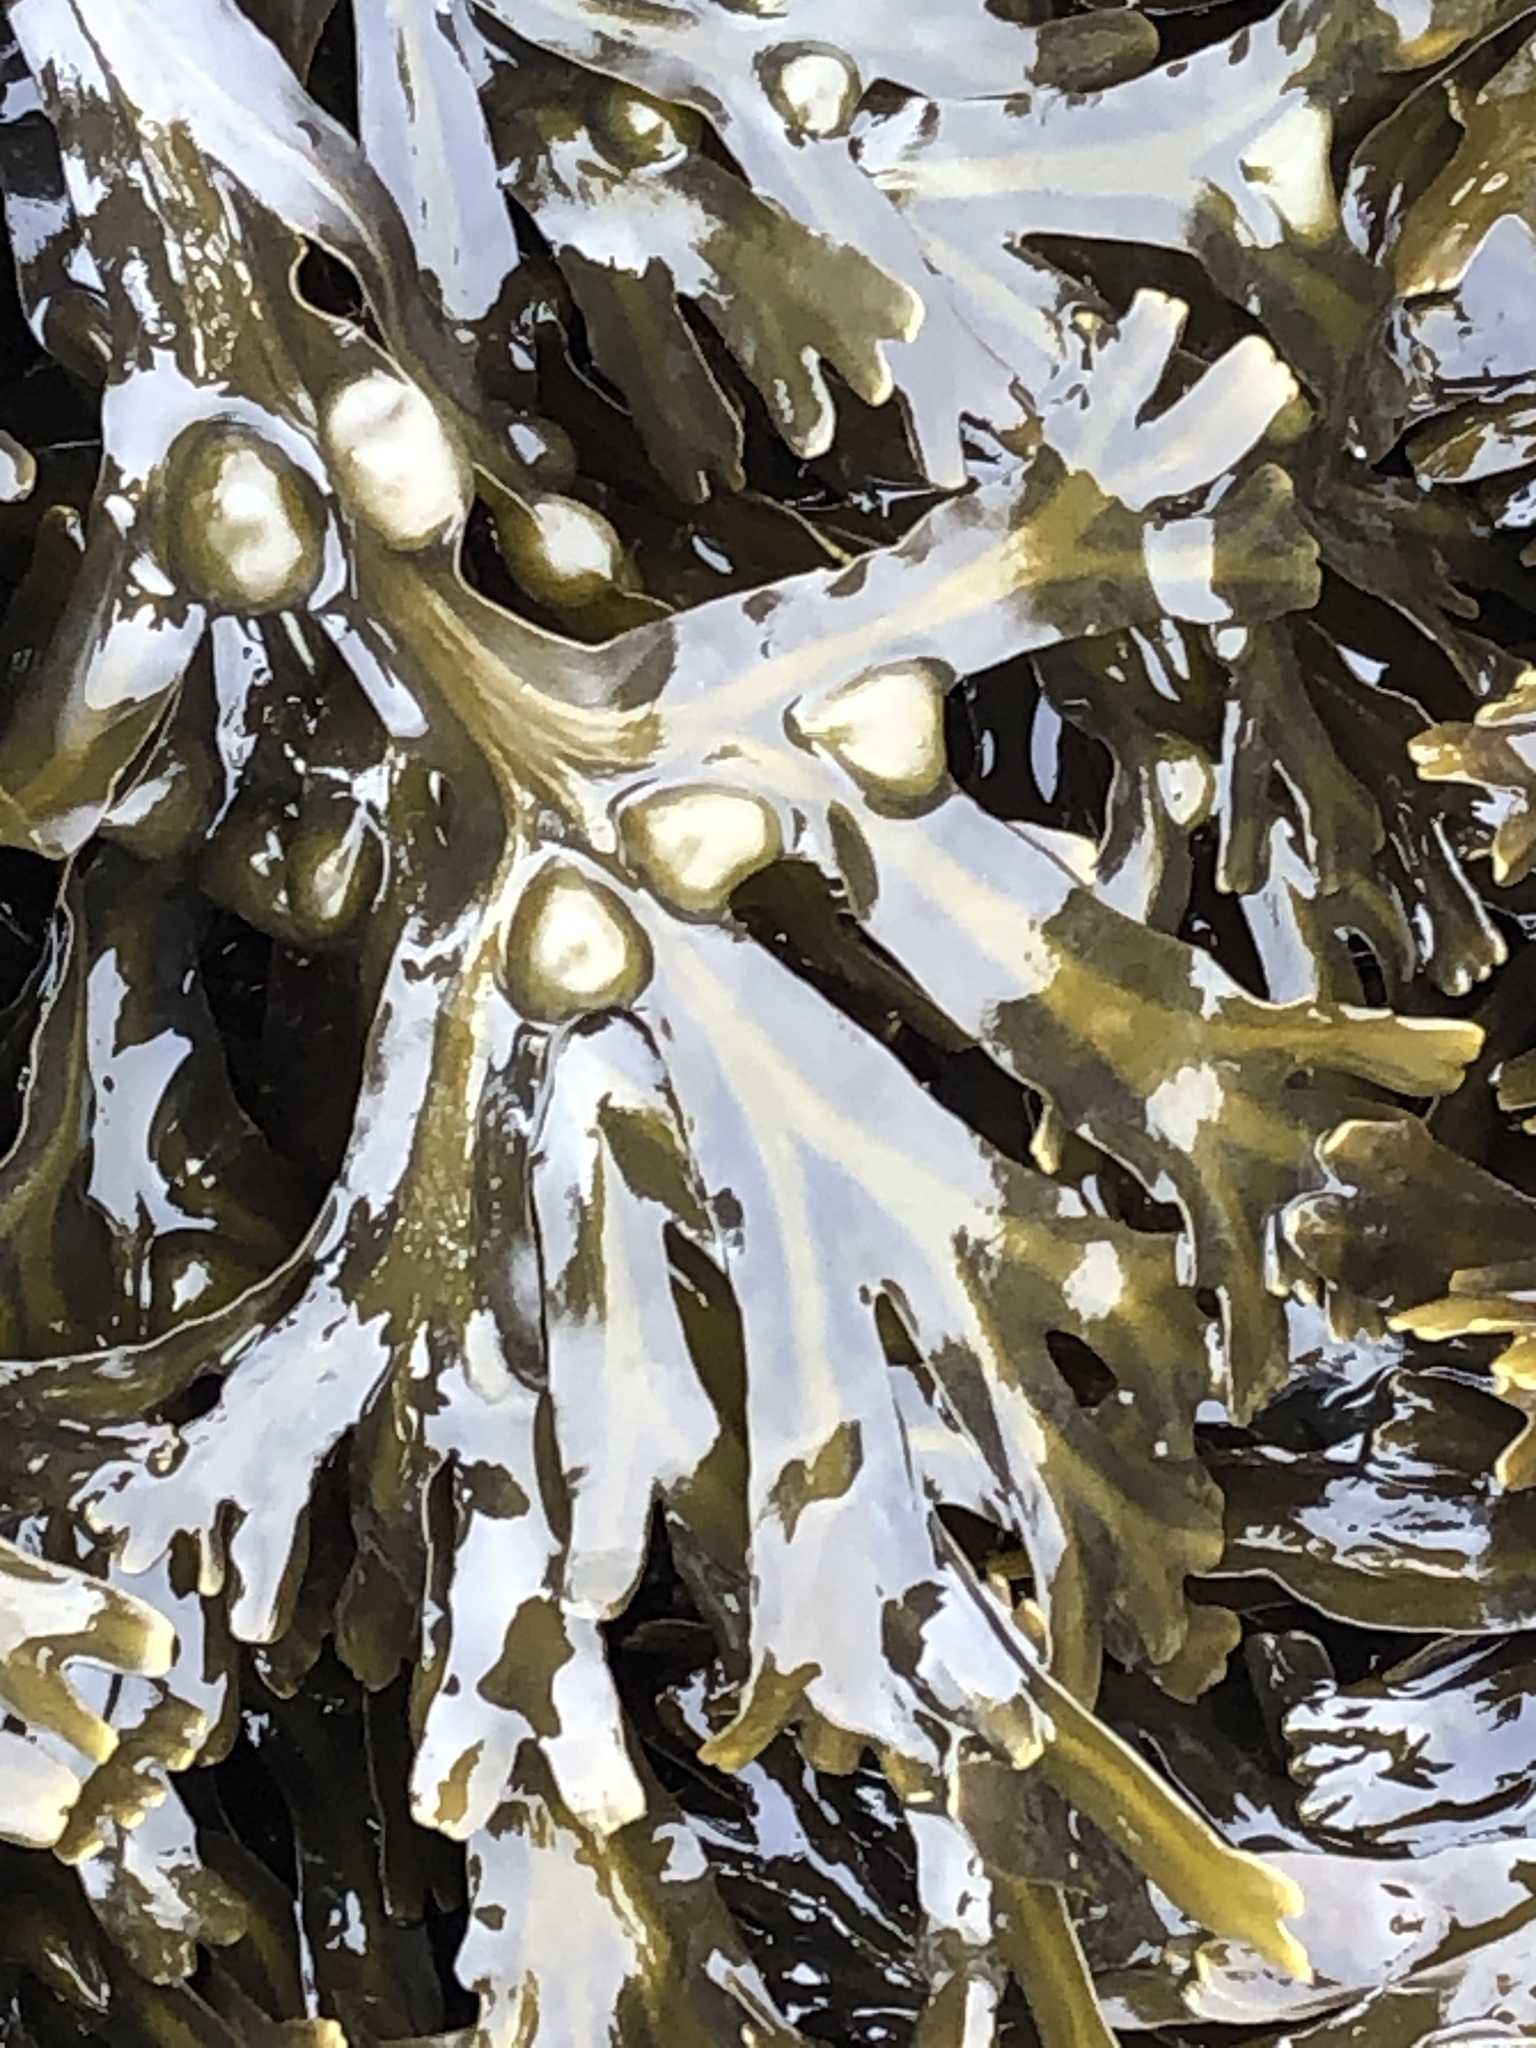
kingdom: Chromista
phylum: Ochrophyta
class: Phaeophyceae
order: Fucales
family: Fucaceae
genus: Fucus
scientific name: Fucus vesiculosus
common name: Bladder wrack
